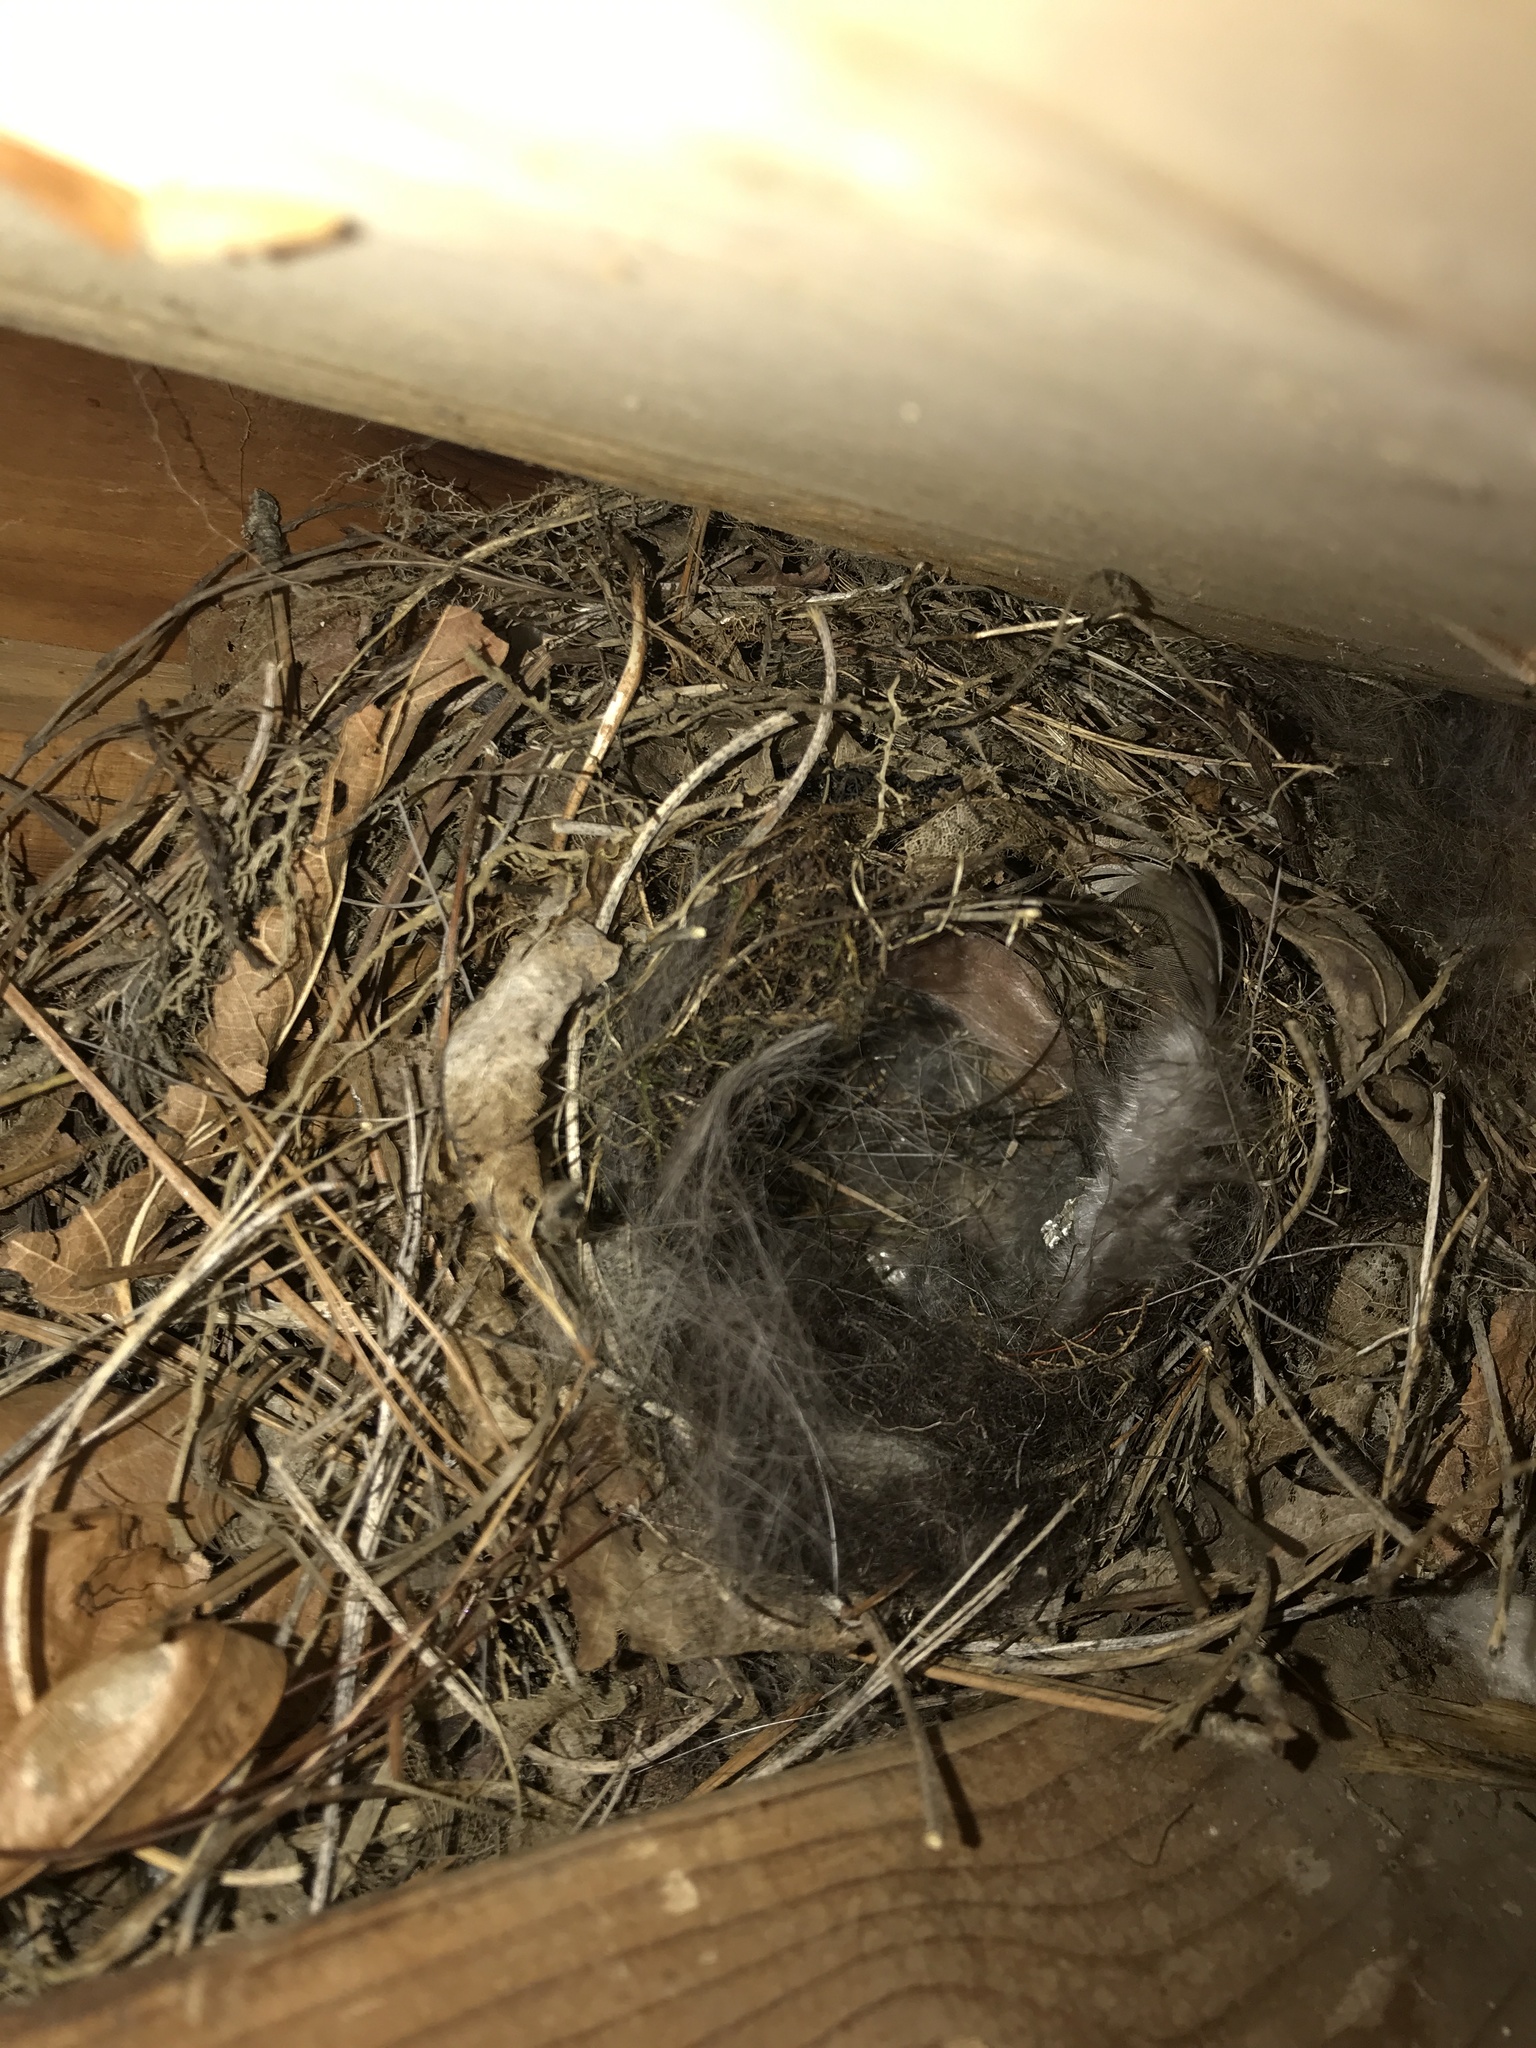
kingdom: Animalia
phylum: Chordata
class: Aves
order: Passeriformes
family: Troglodytidae
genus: Thryothorus
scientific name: Thryothorus ludovicianus
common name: Carolina wren
